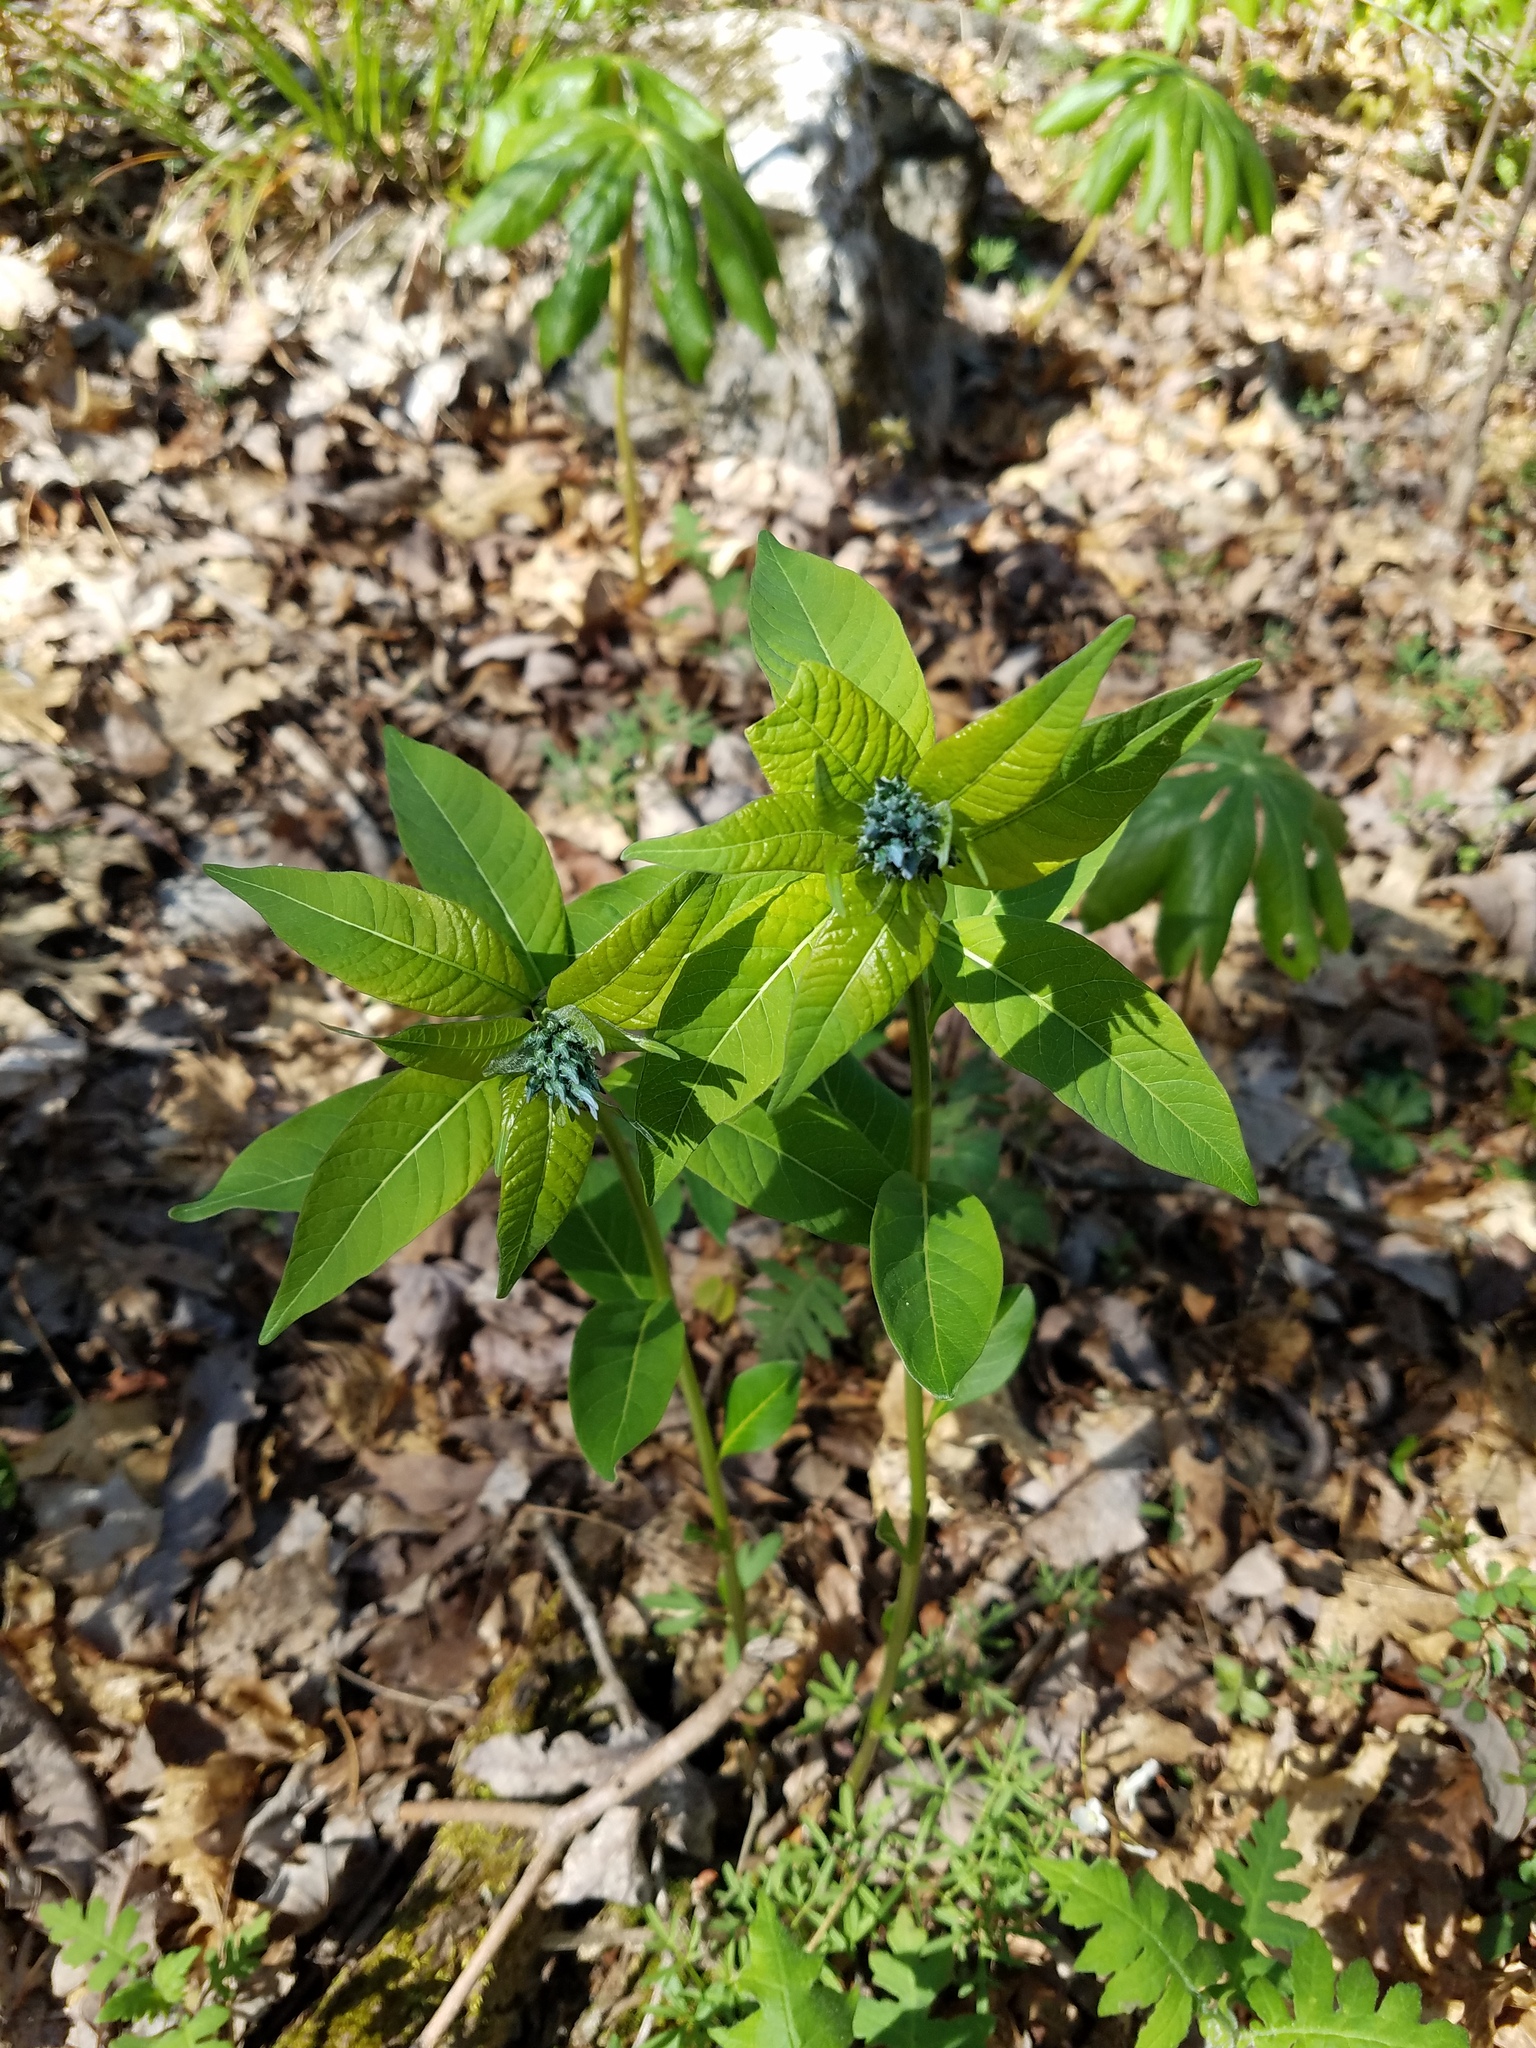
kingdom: Plantae
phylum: Tracheophyta
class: Magnoliopsida
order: Gentianales
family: Apocynaceae
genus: Amsonia
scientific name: Amsonia tabernaemontana
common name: Texas-star
